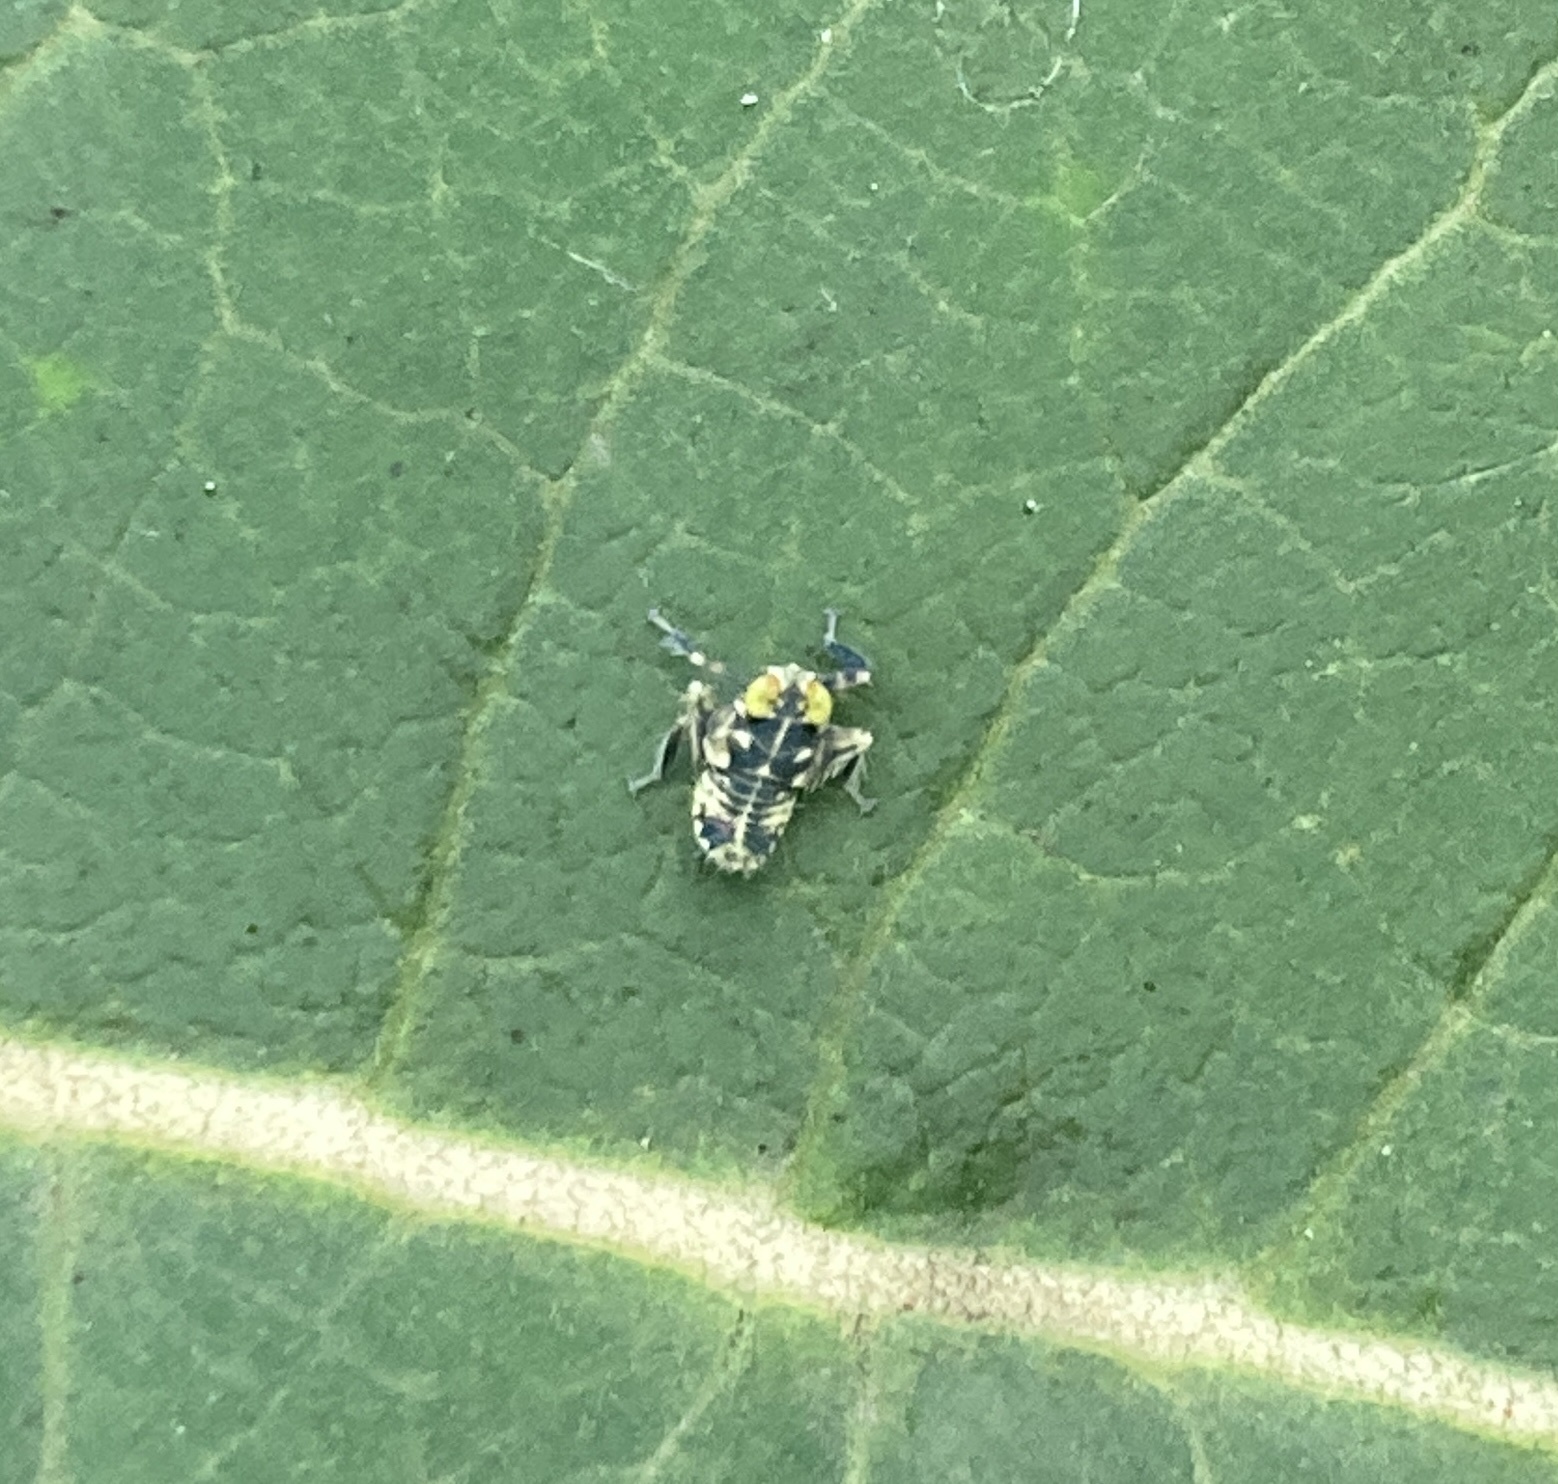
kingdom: Animalia
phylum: Arthropoda
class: Insecta
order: Hemiptera
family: Cicadellidae
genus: Jikradia
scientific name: Jikradia olitoria
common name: Coppery leafhopper
